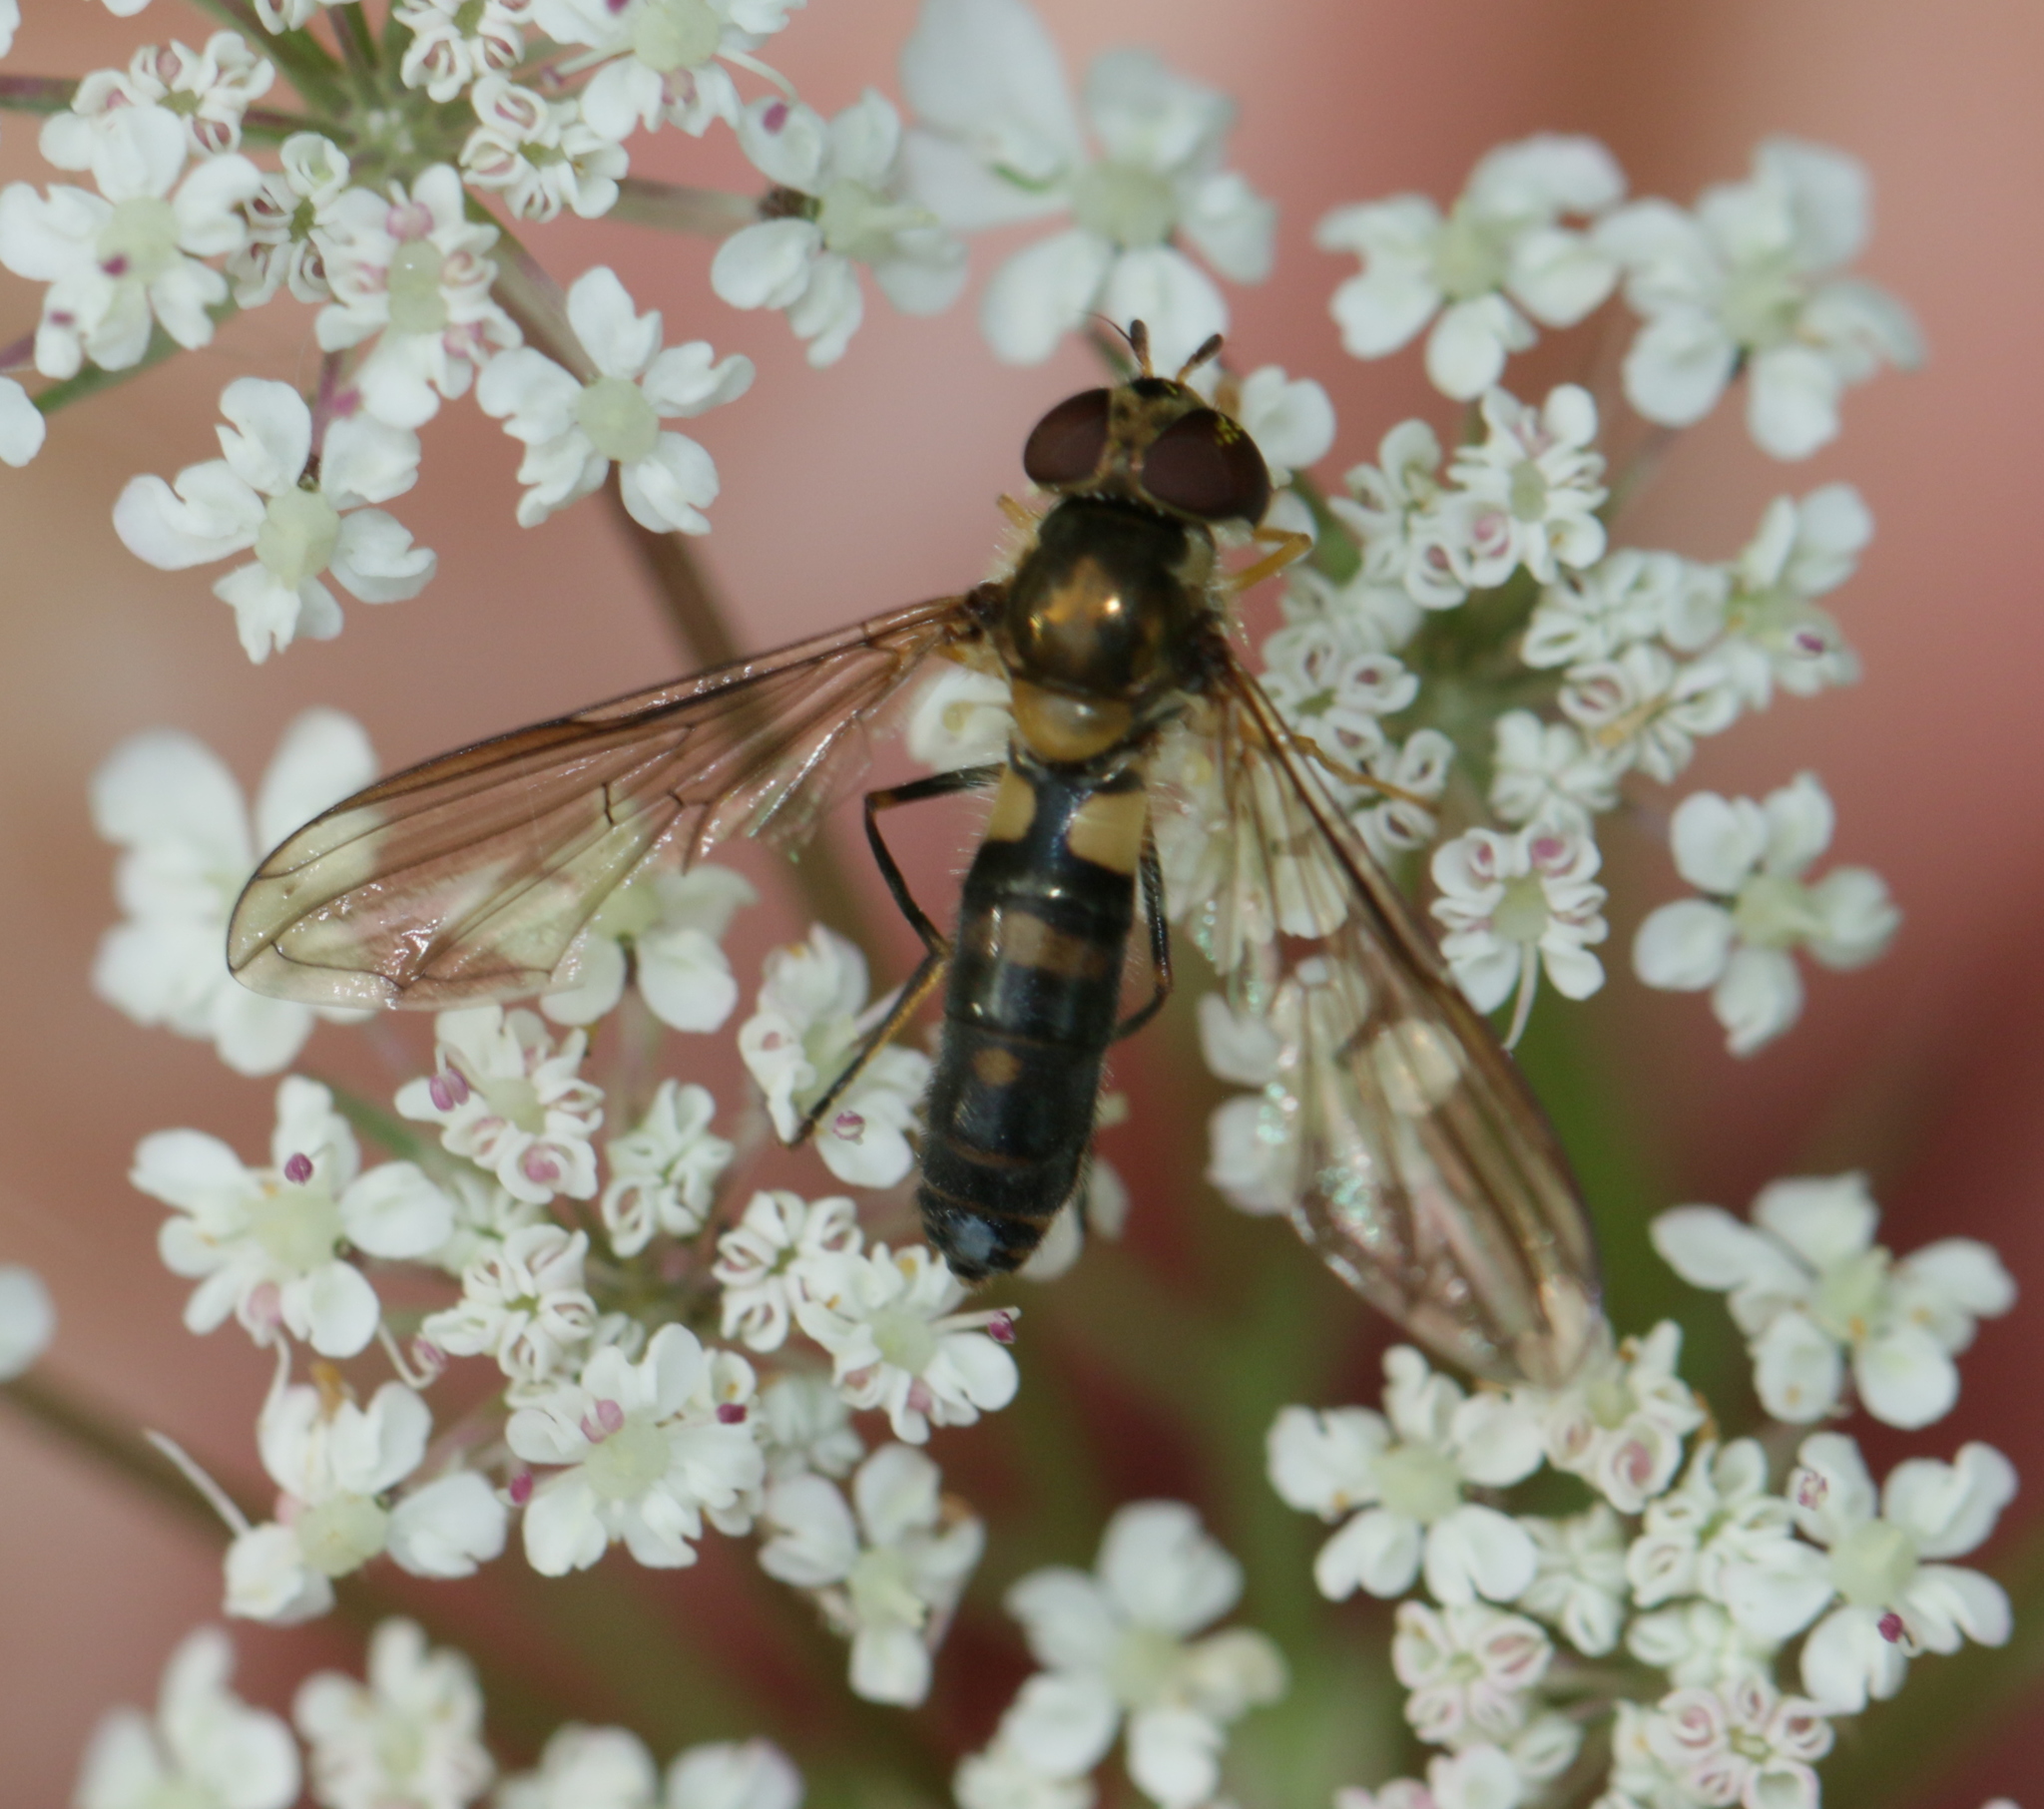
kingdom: Animalia
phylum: Arthropoda
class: Insecta
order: Diptera
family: Syrphidae
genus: Meliscaeva
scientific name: Meliscaeva cinctella
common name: American thintail fly
